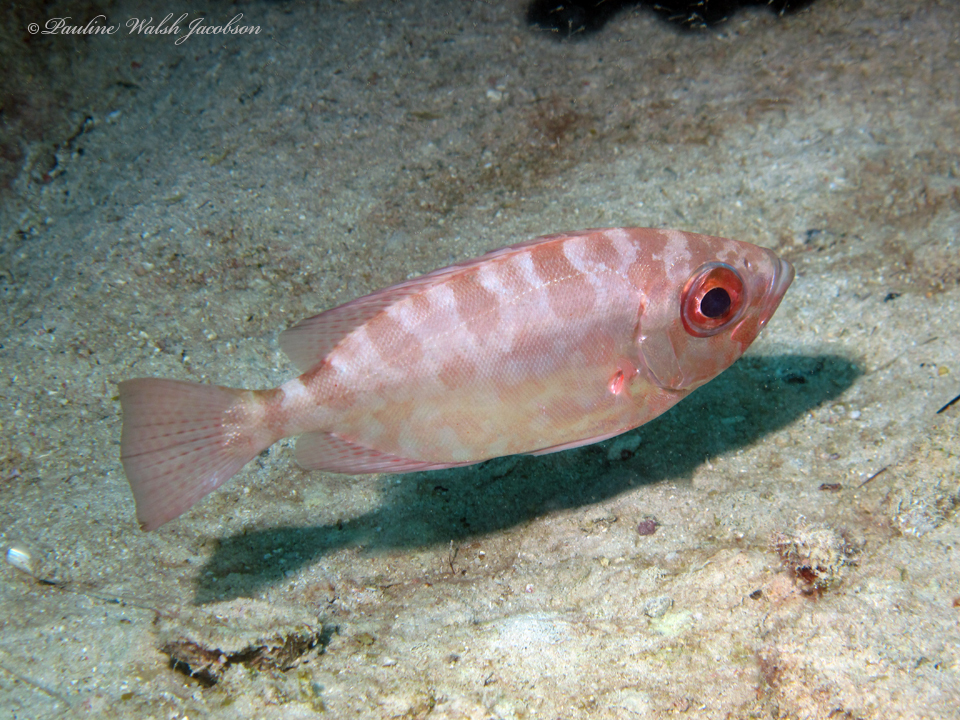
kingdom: Animalia
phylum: Chordata
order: Perciformes
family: Priacanthidae
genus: Heteropriacanthus
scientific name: Heteropriacanthus cruentatus
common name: Glasseye
